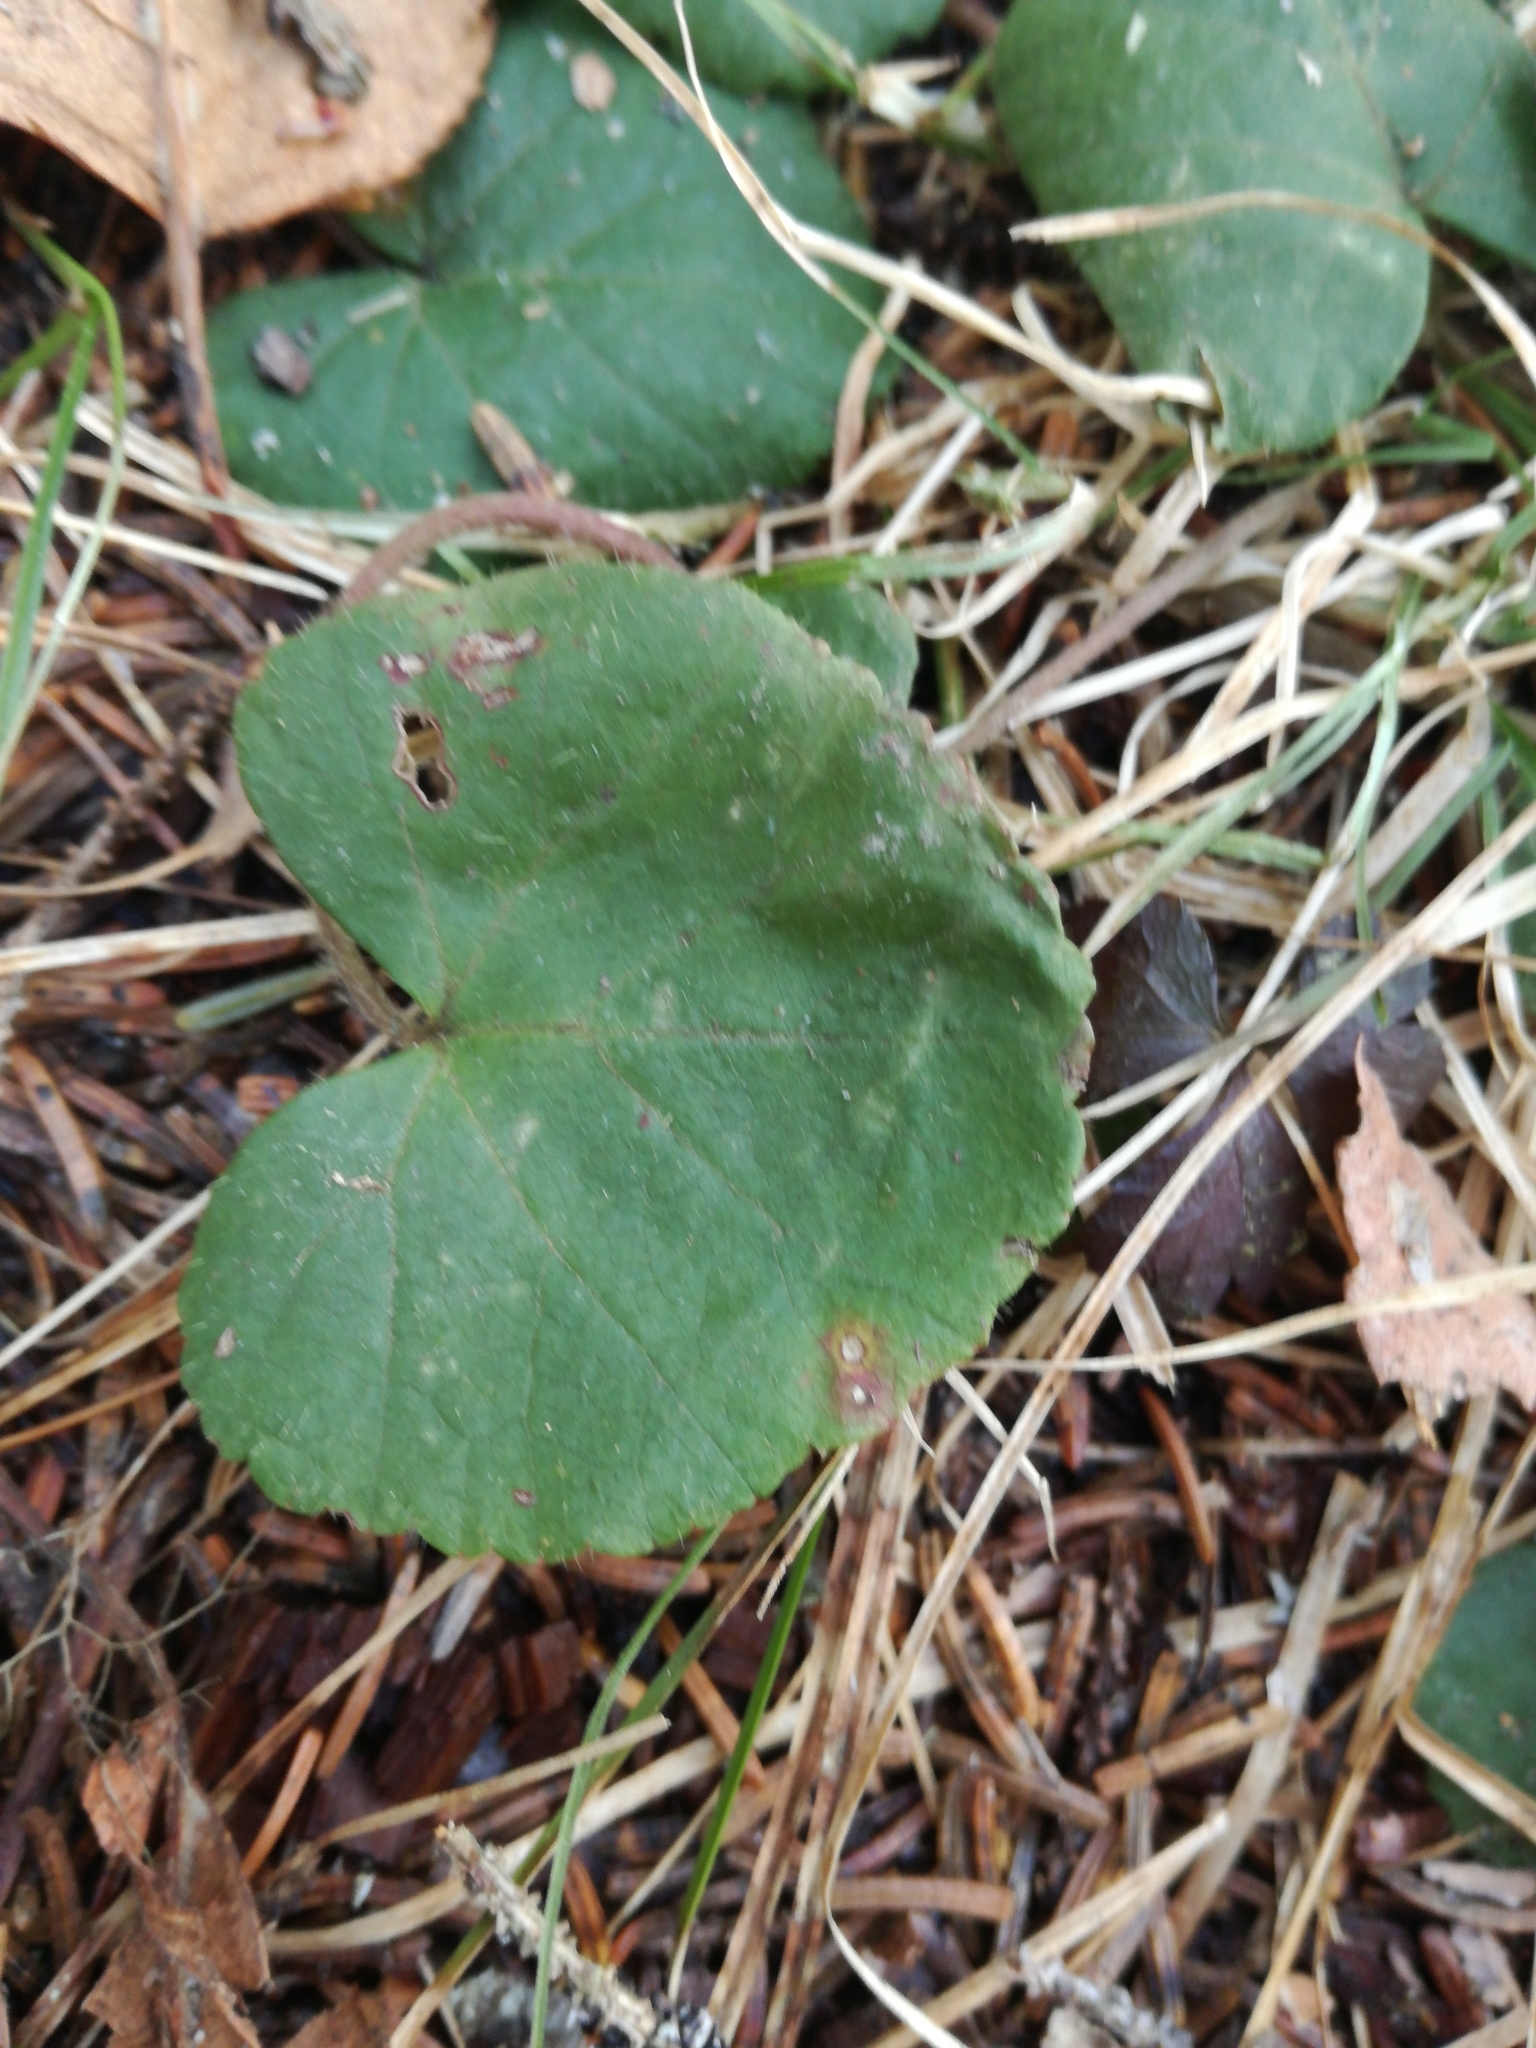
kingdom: Plantae
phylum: Tracheophyta
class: Magnoliopsida
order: Rosales
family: Rosaceae
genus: Dalibarda
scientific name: Dalibarda repens
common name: Dewdrop
